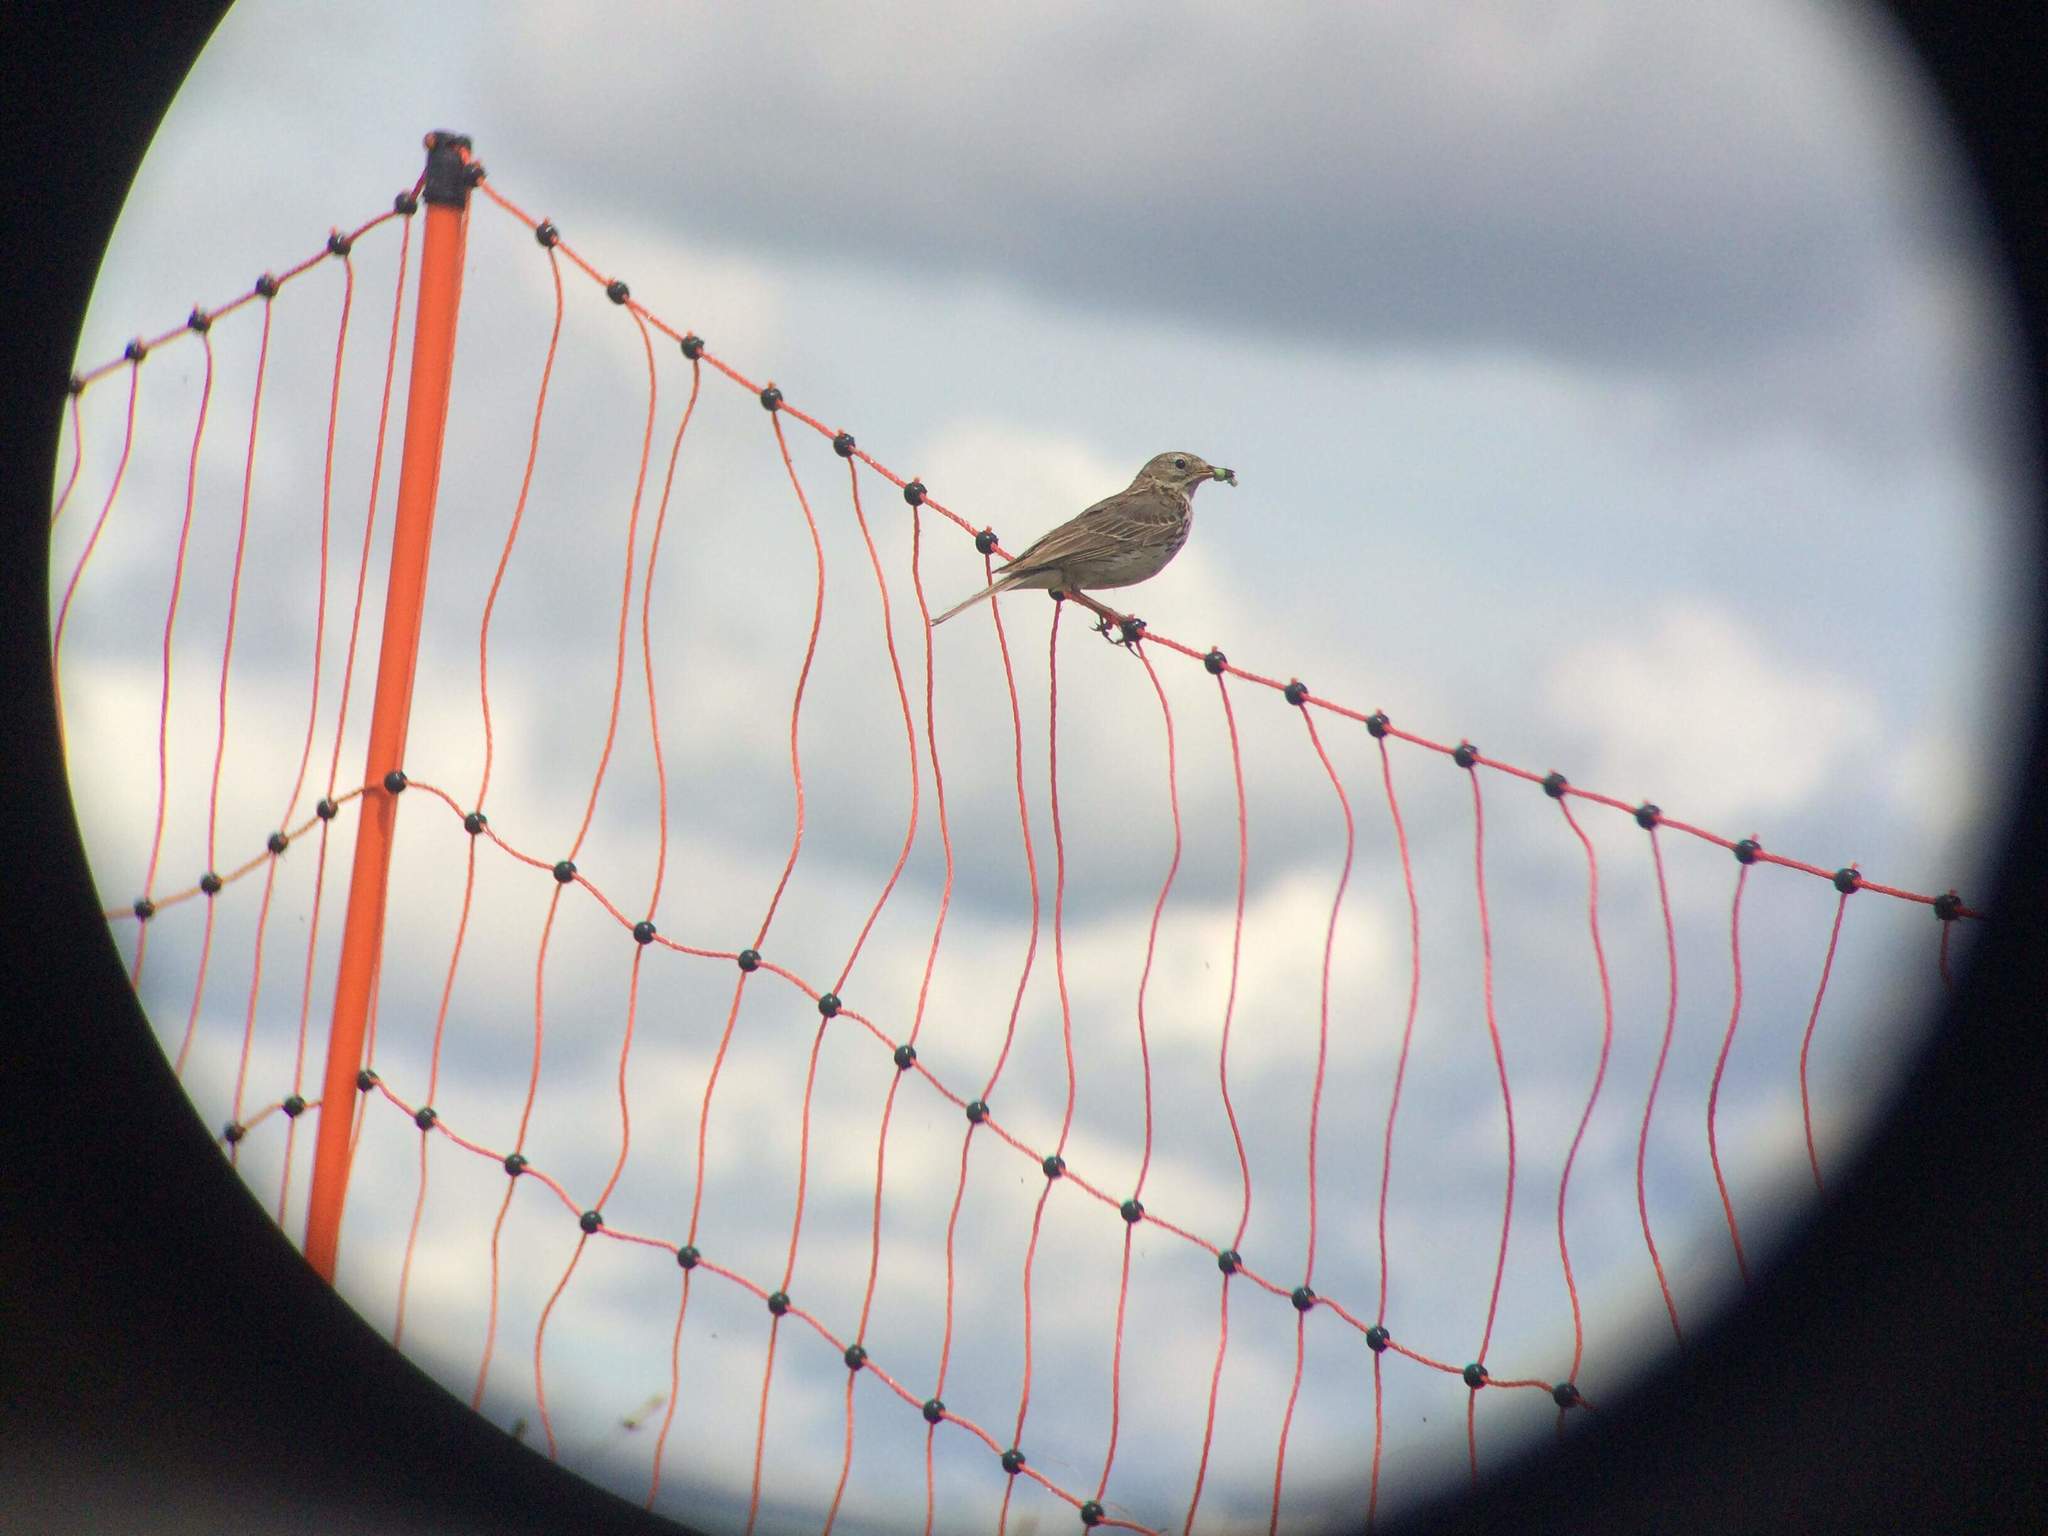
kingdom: Animalia
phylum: Chordata
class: Aves
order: Passeriformes
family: Motacillidae
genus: Anthus
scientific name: Anthus pratensis
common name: Meadow pipit
